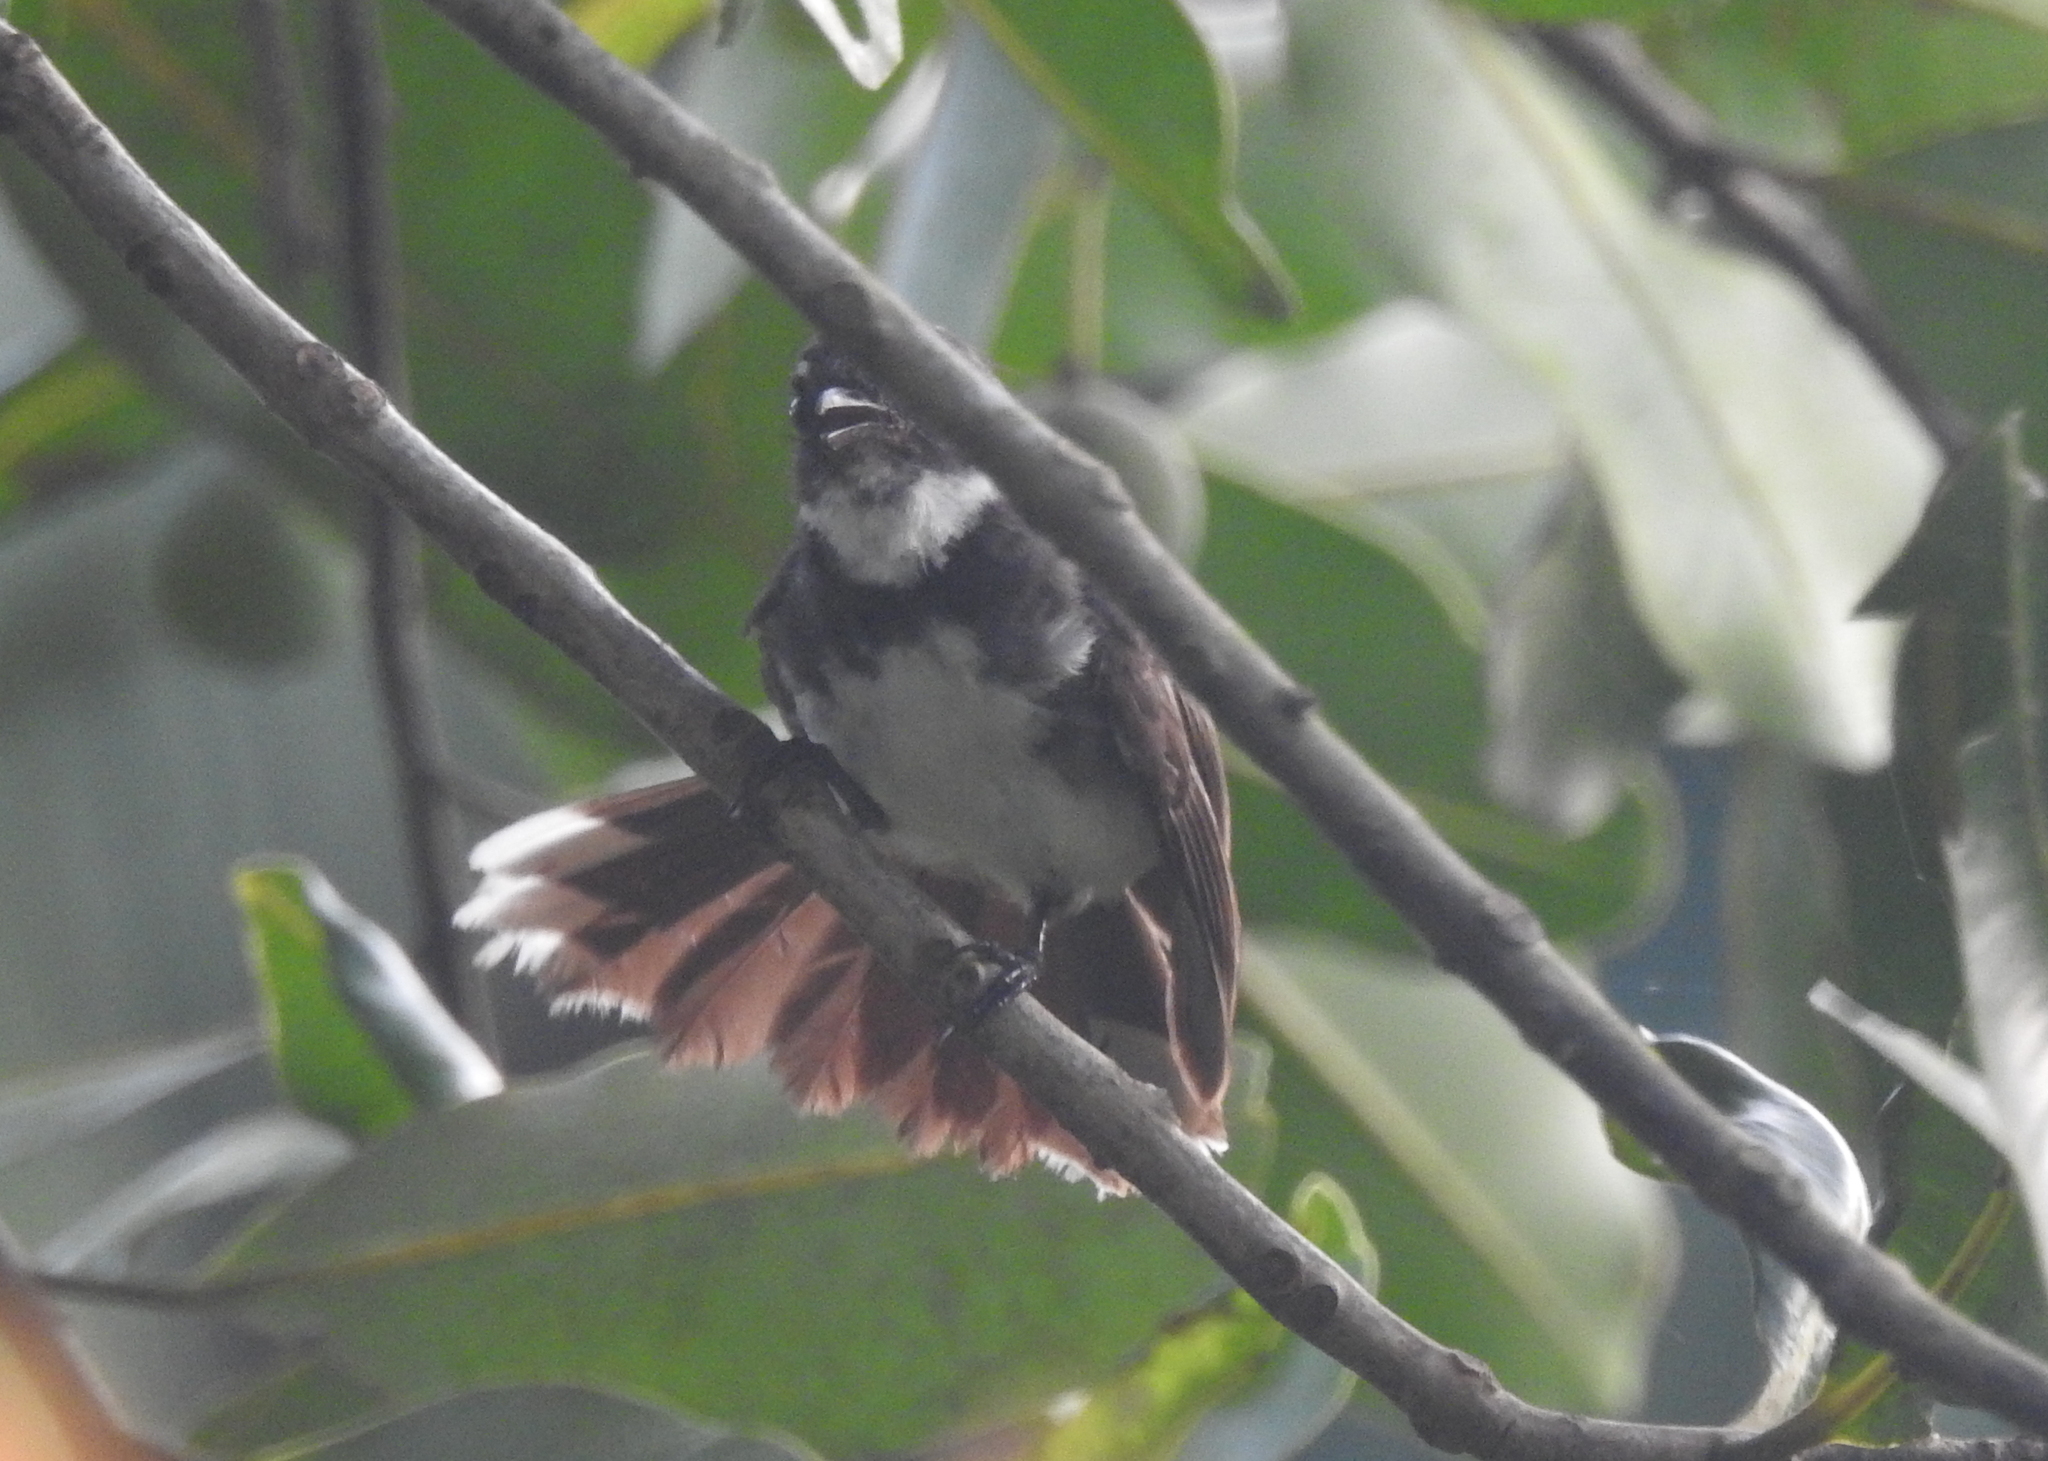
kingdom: Animalia
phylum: Chordata
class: Aves
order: Passeriformes
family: Rhipiduridae
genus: Rhipidura
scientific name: Rhipidura javanica
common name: Pied fantail
